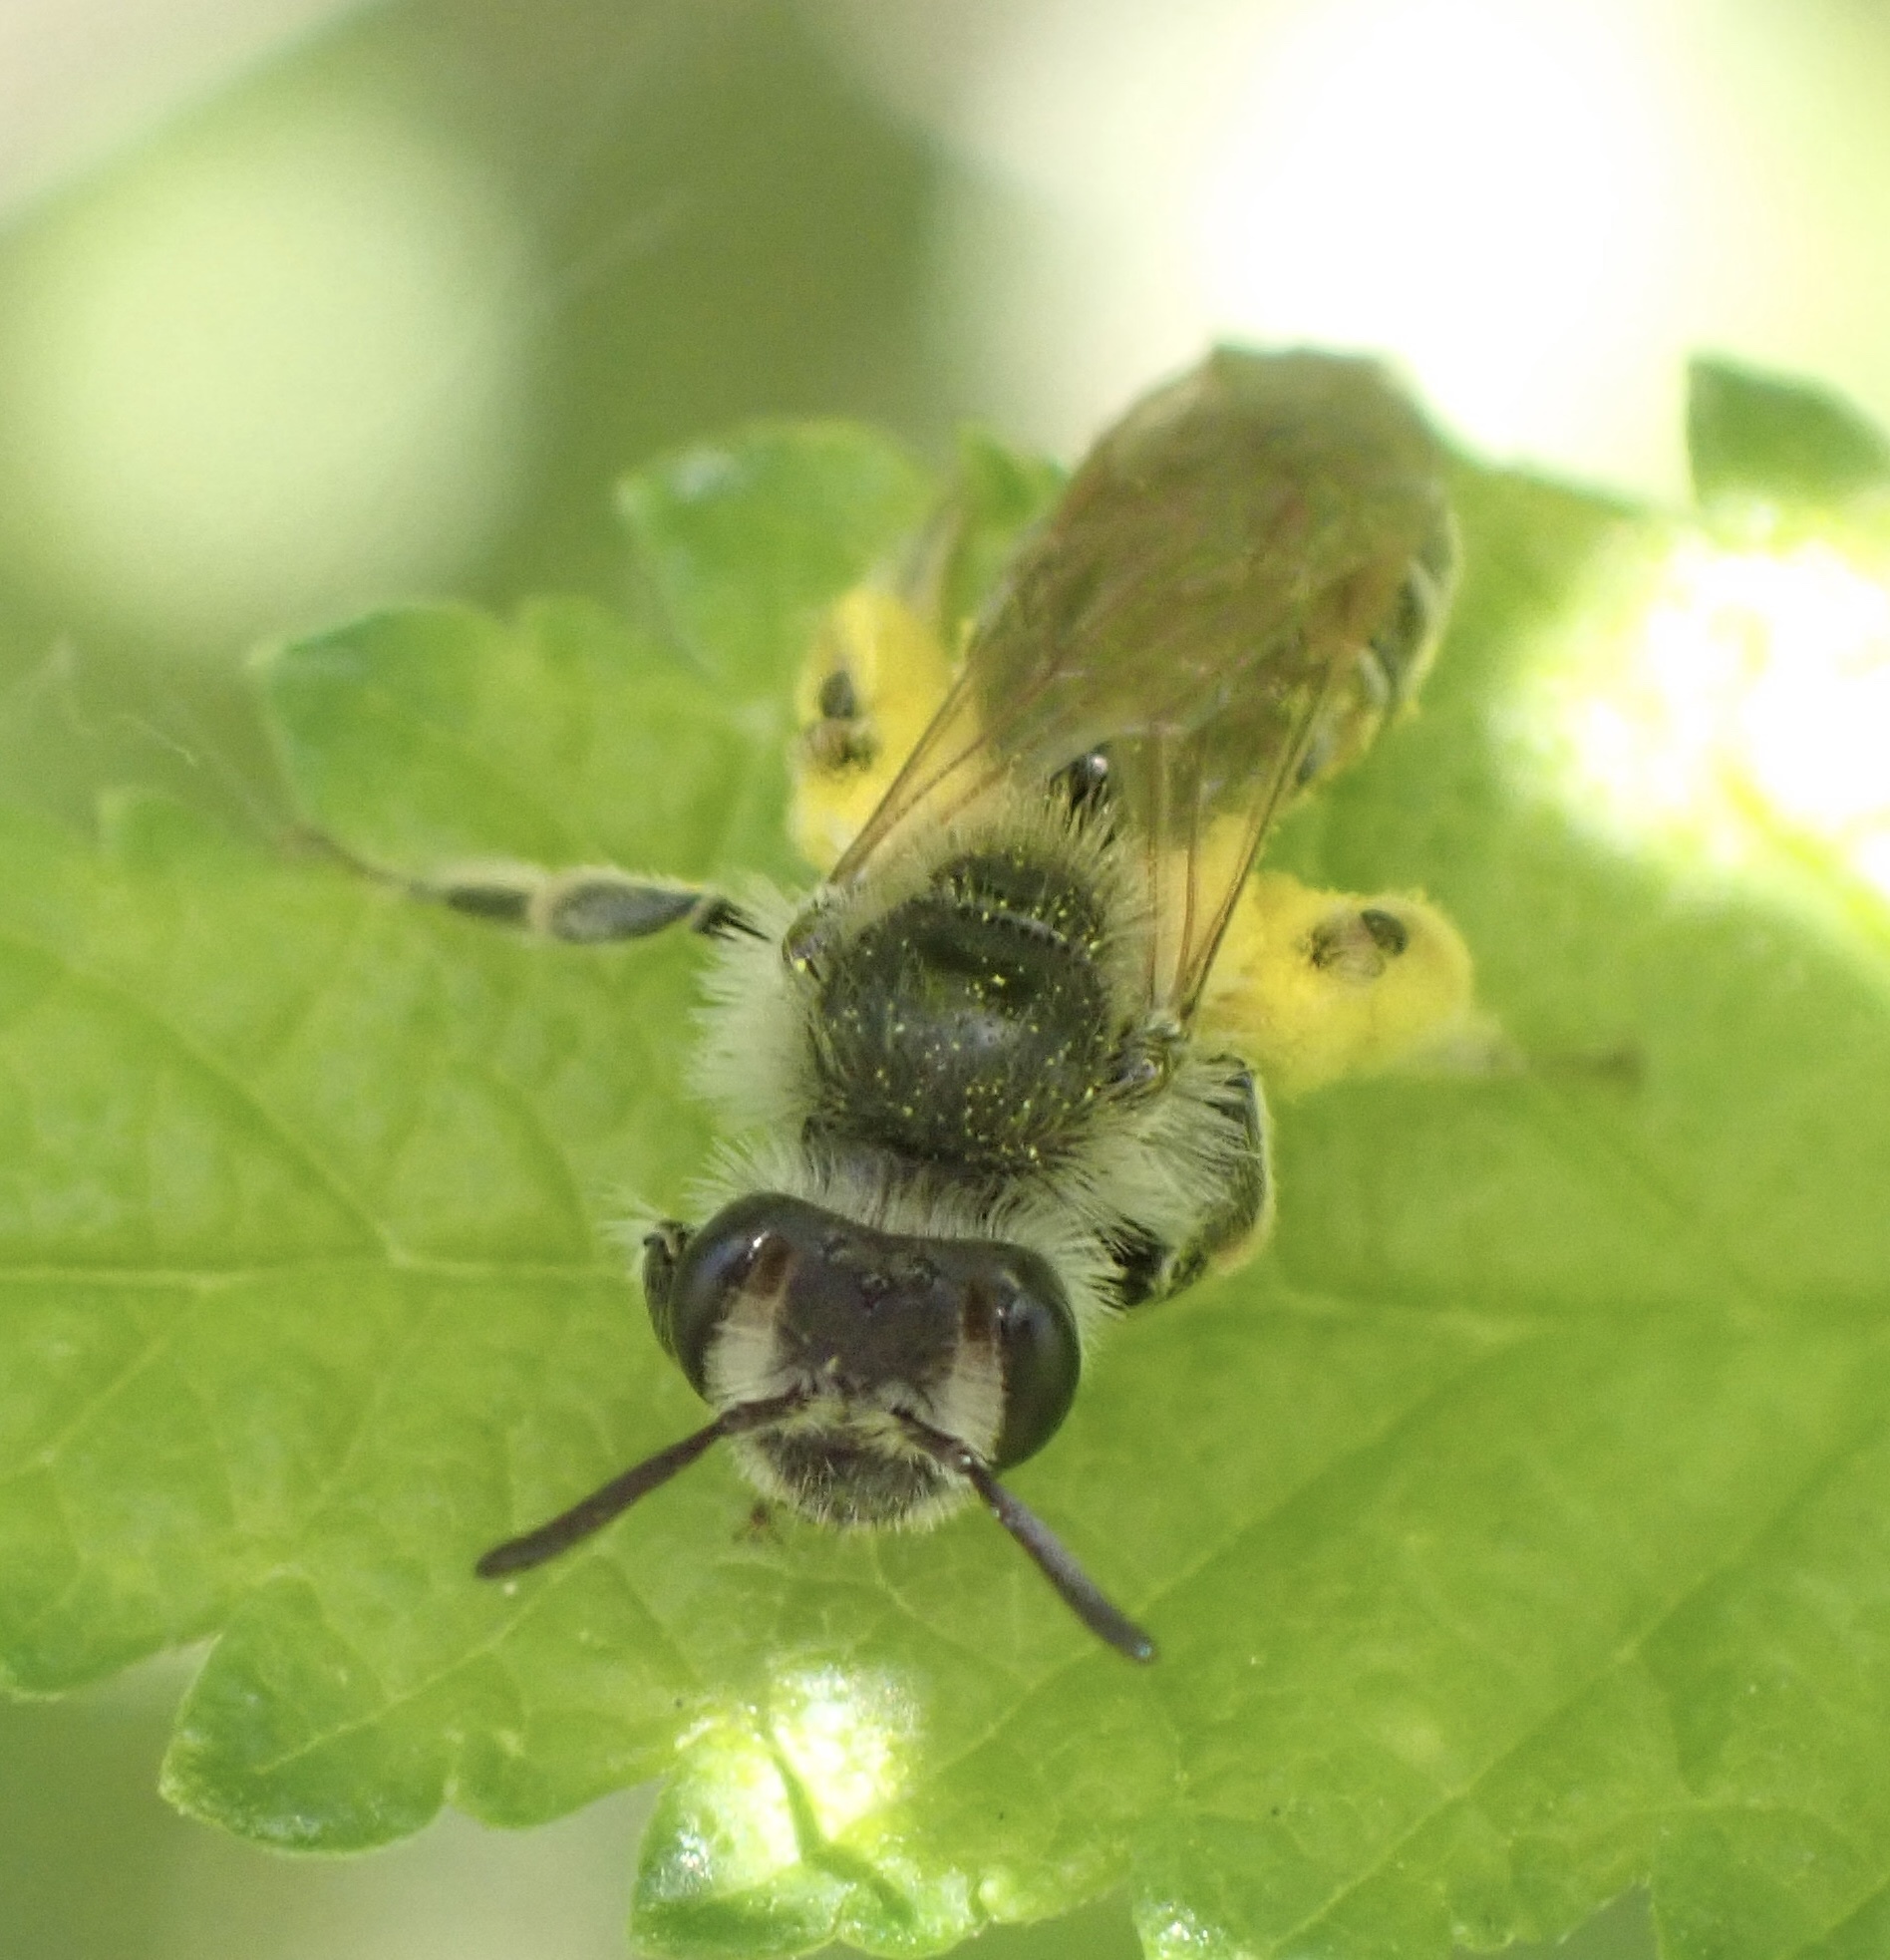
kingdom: Animalia
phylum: Arthropoda
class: Insecta
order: Hymenoptera
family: Andrenidae
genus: Andrena
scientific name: Andrena ventralis
